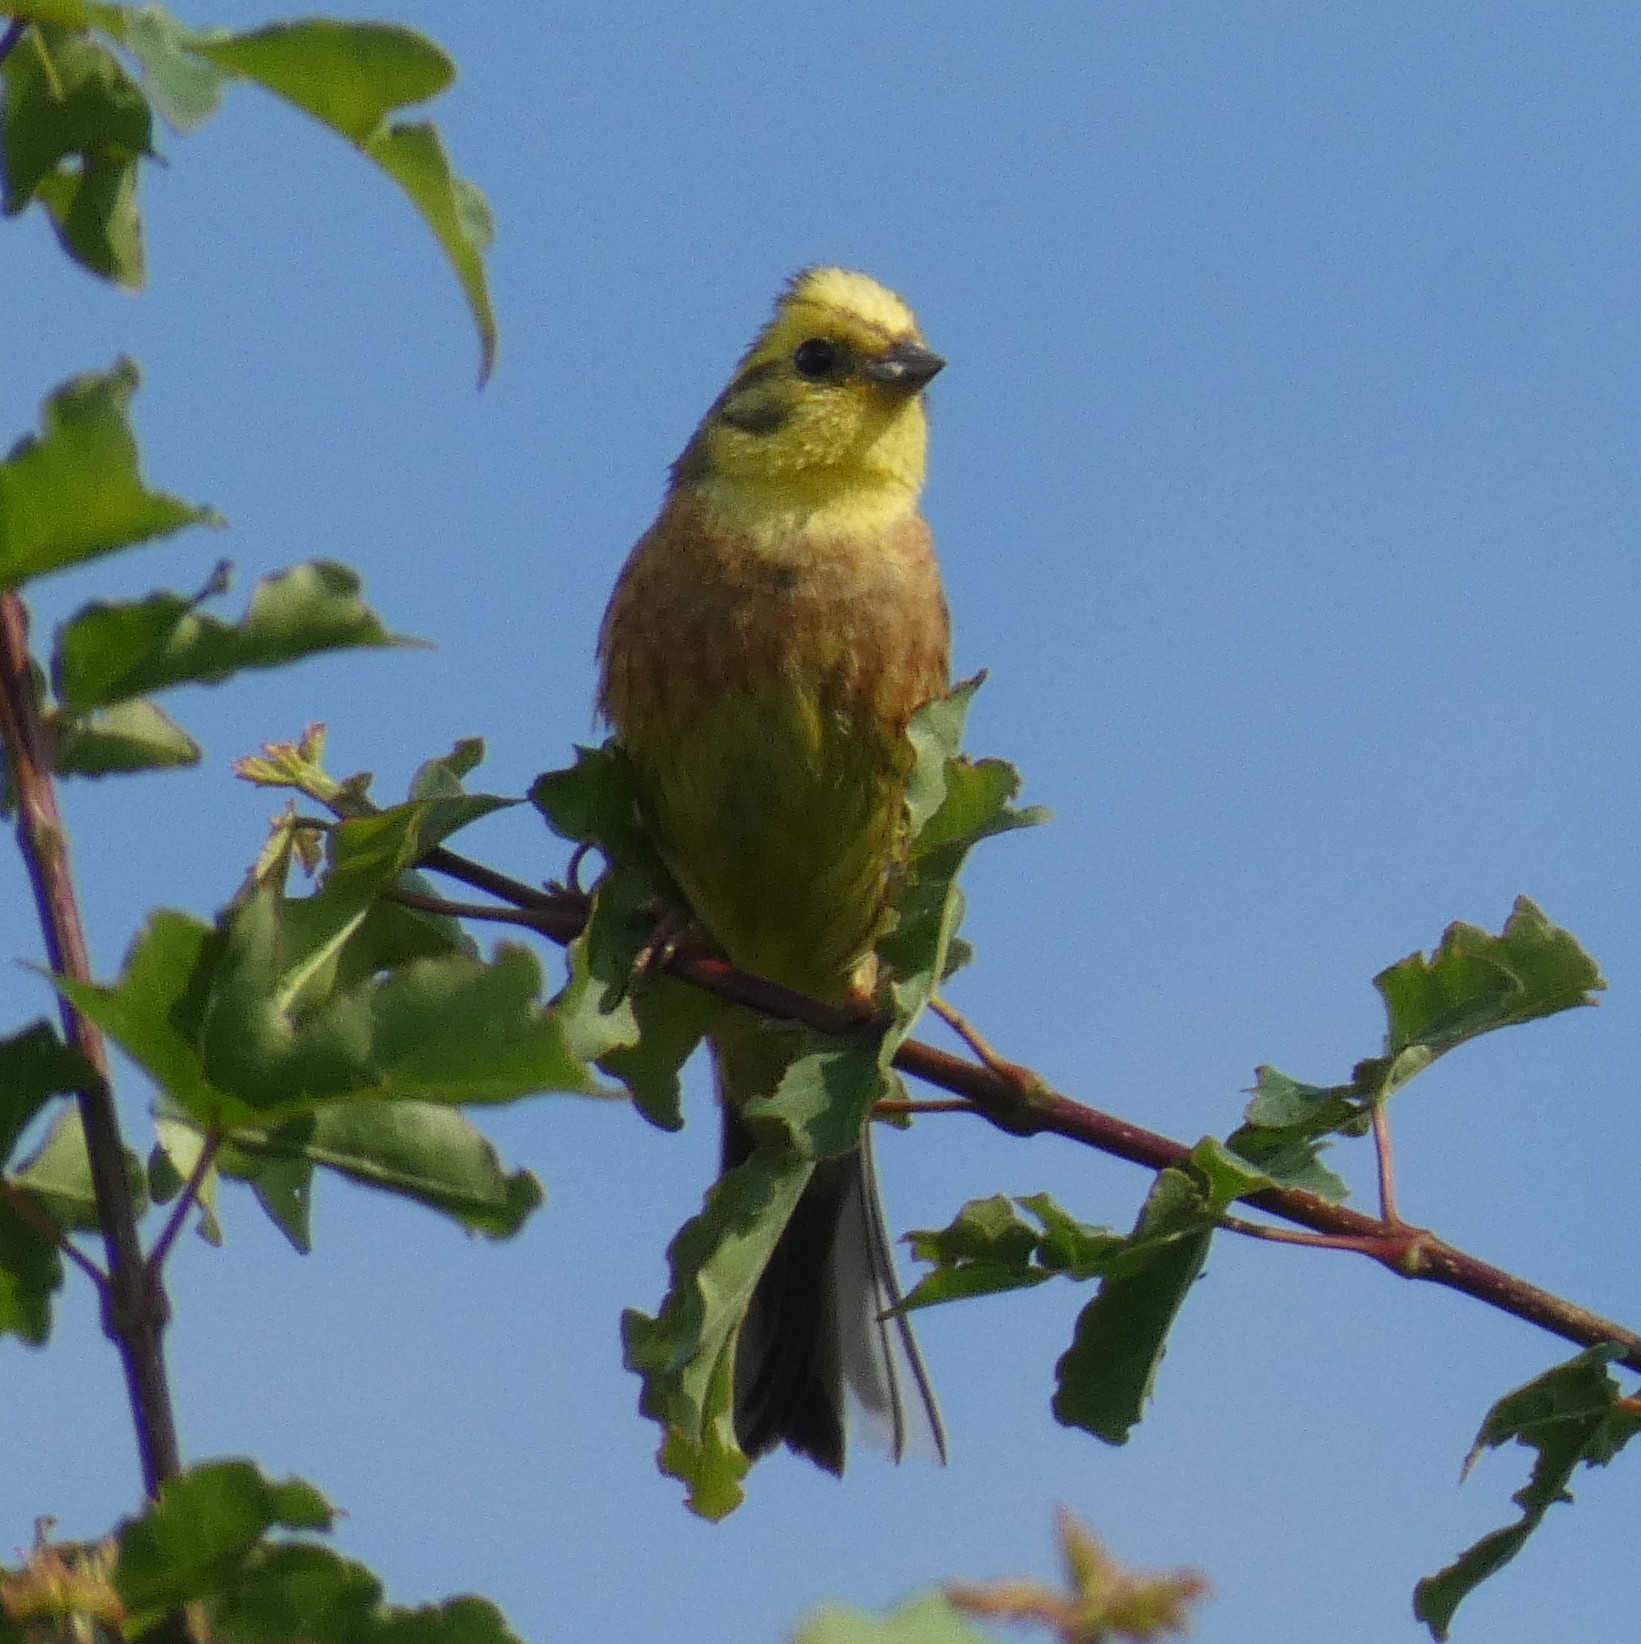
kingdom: Animalia
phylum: Chordata
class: Aves
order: Passeriformes
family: Emberizidae
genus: Emberiza
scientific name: Emberiza citrinella
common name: Yellowhammer
